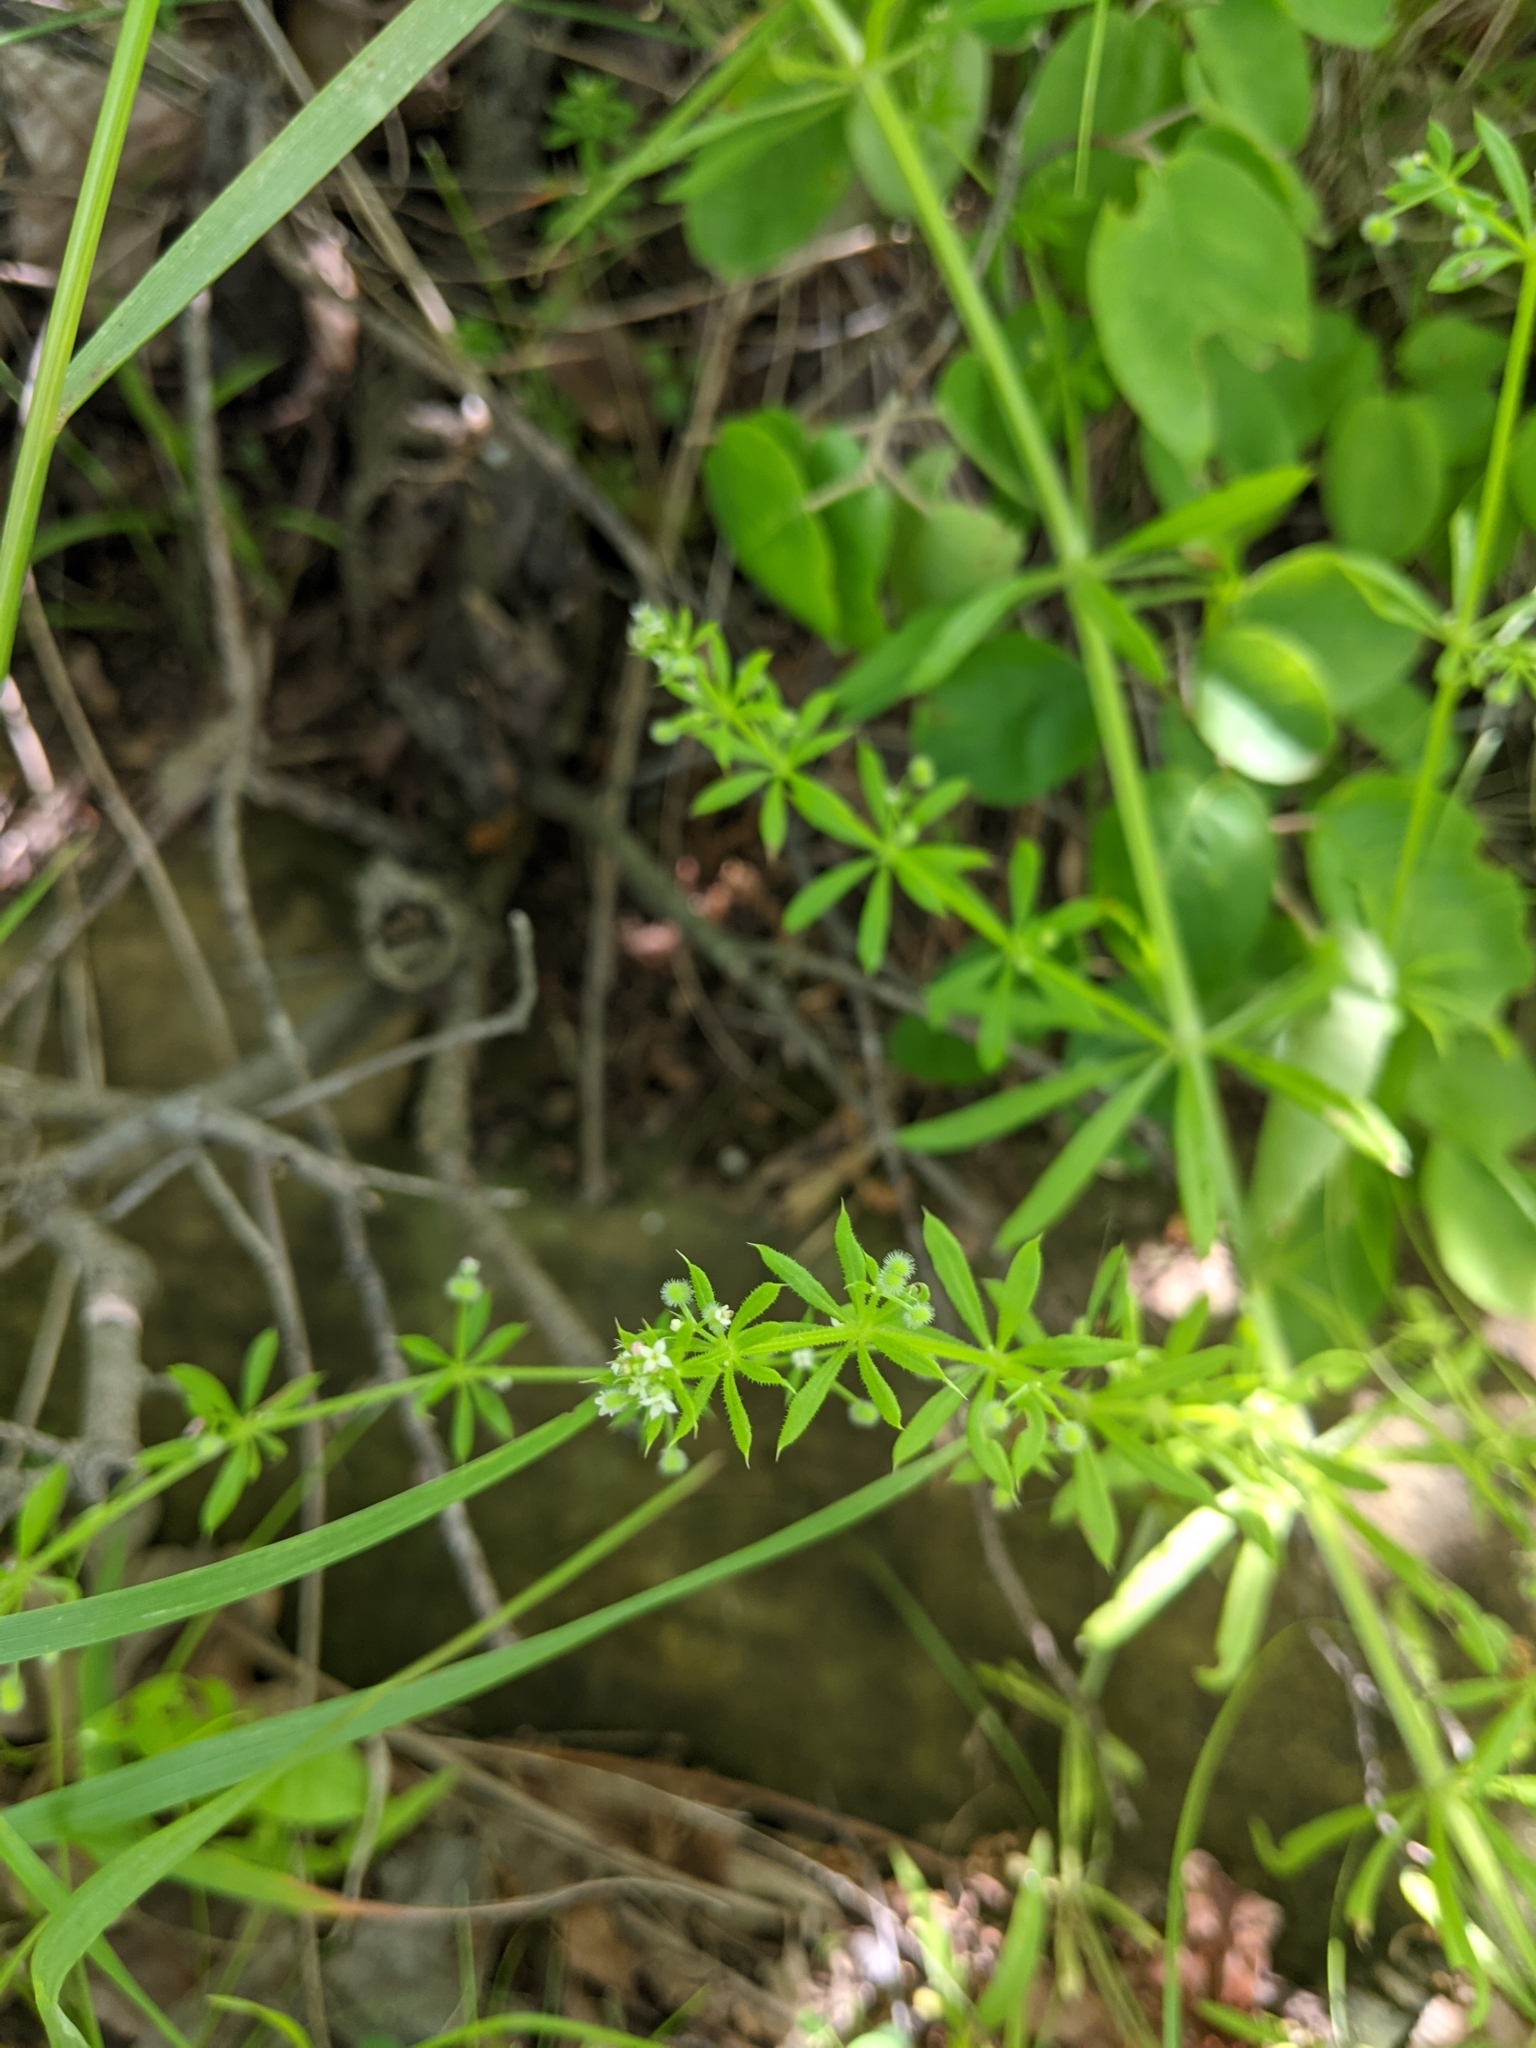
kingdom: Plantae
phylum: Tracheophyta
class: Magnoliopsida
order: Gentianales
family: Rubiaceae
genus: Galium
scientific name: Galium aparine
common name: Cleavers
